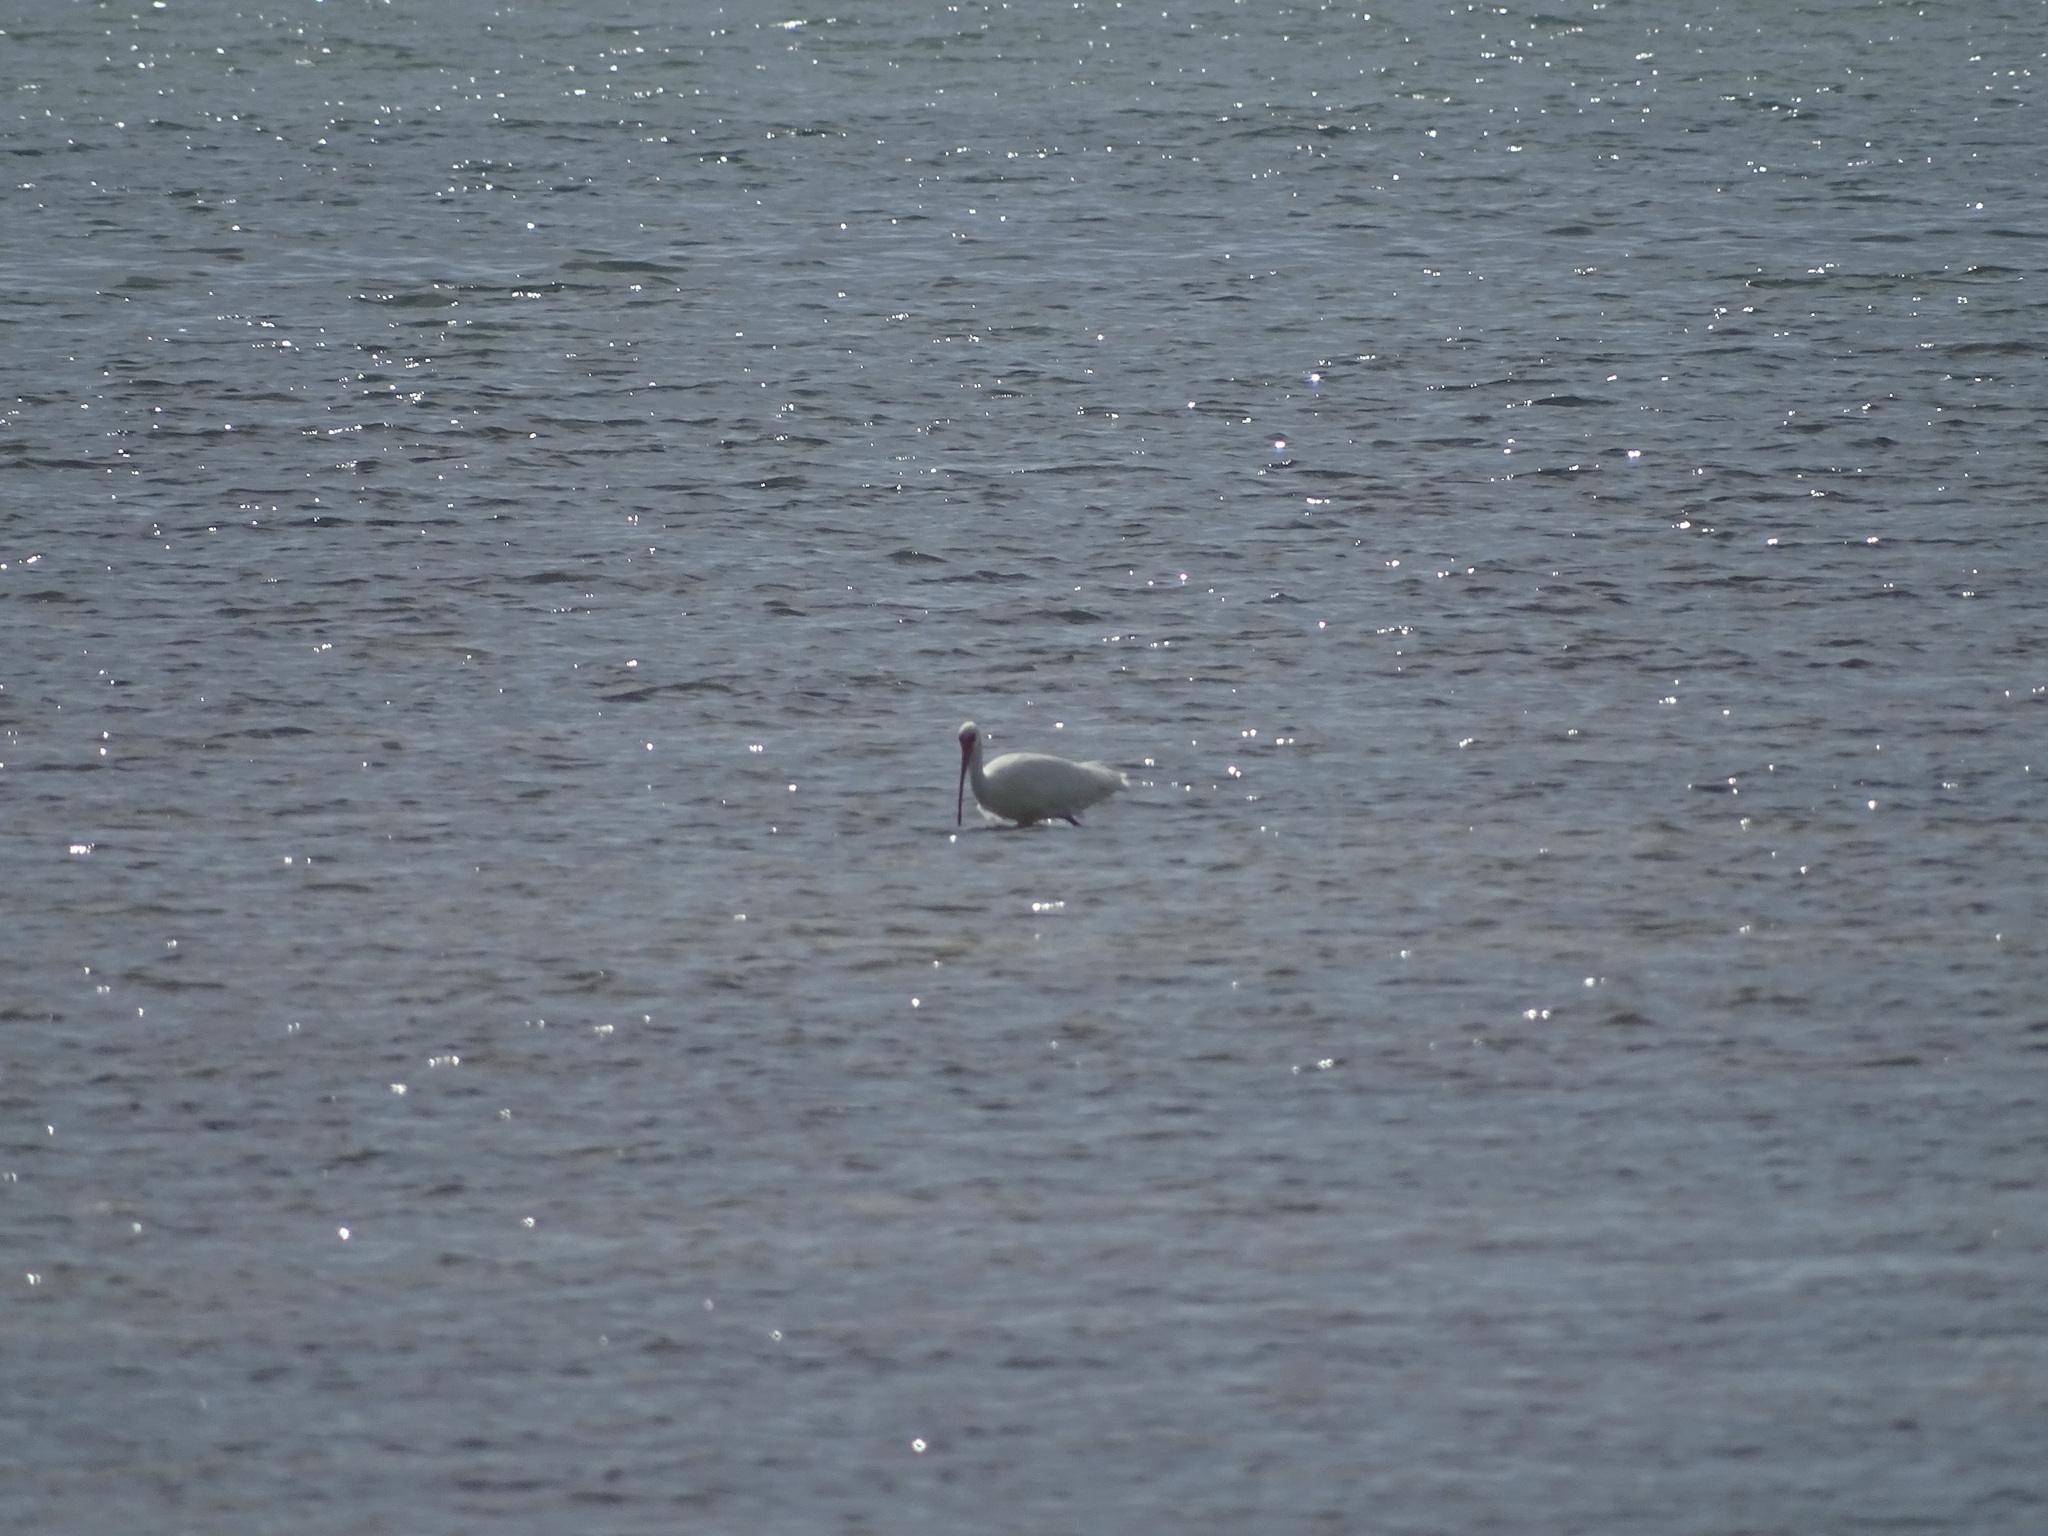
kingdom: Animalia
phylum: Chordata
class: Aves
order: Pelecaniformes
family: Threskiornithidae
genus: Eudocimus
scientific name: Eudocimus albus
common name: White ibis
